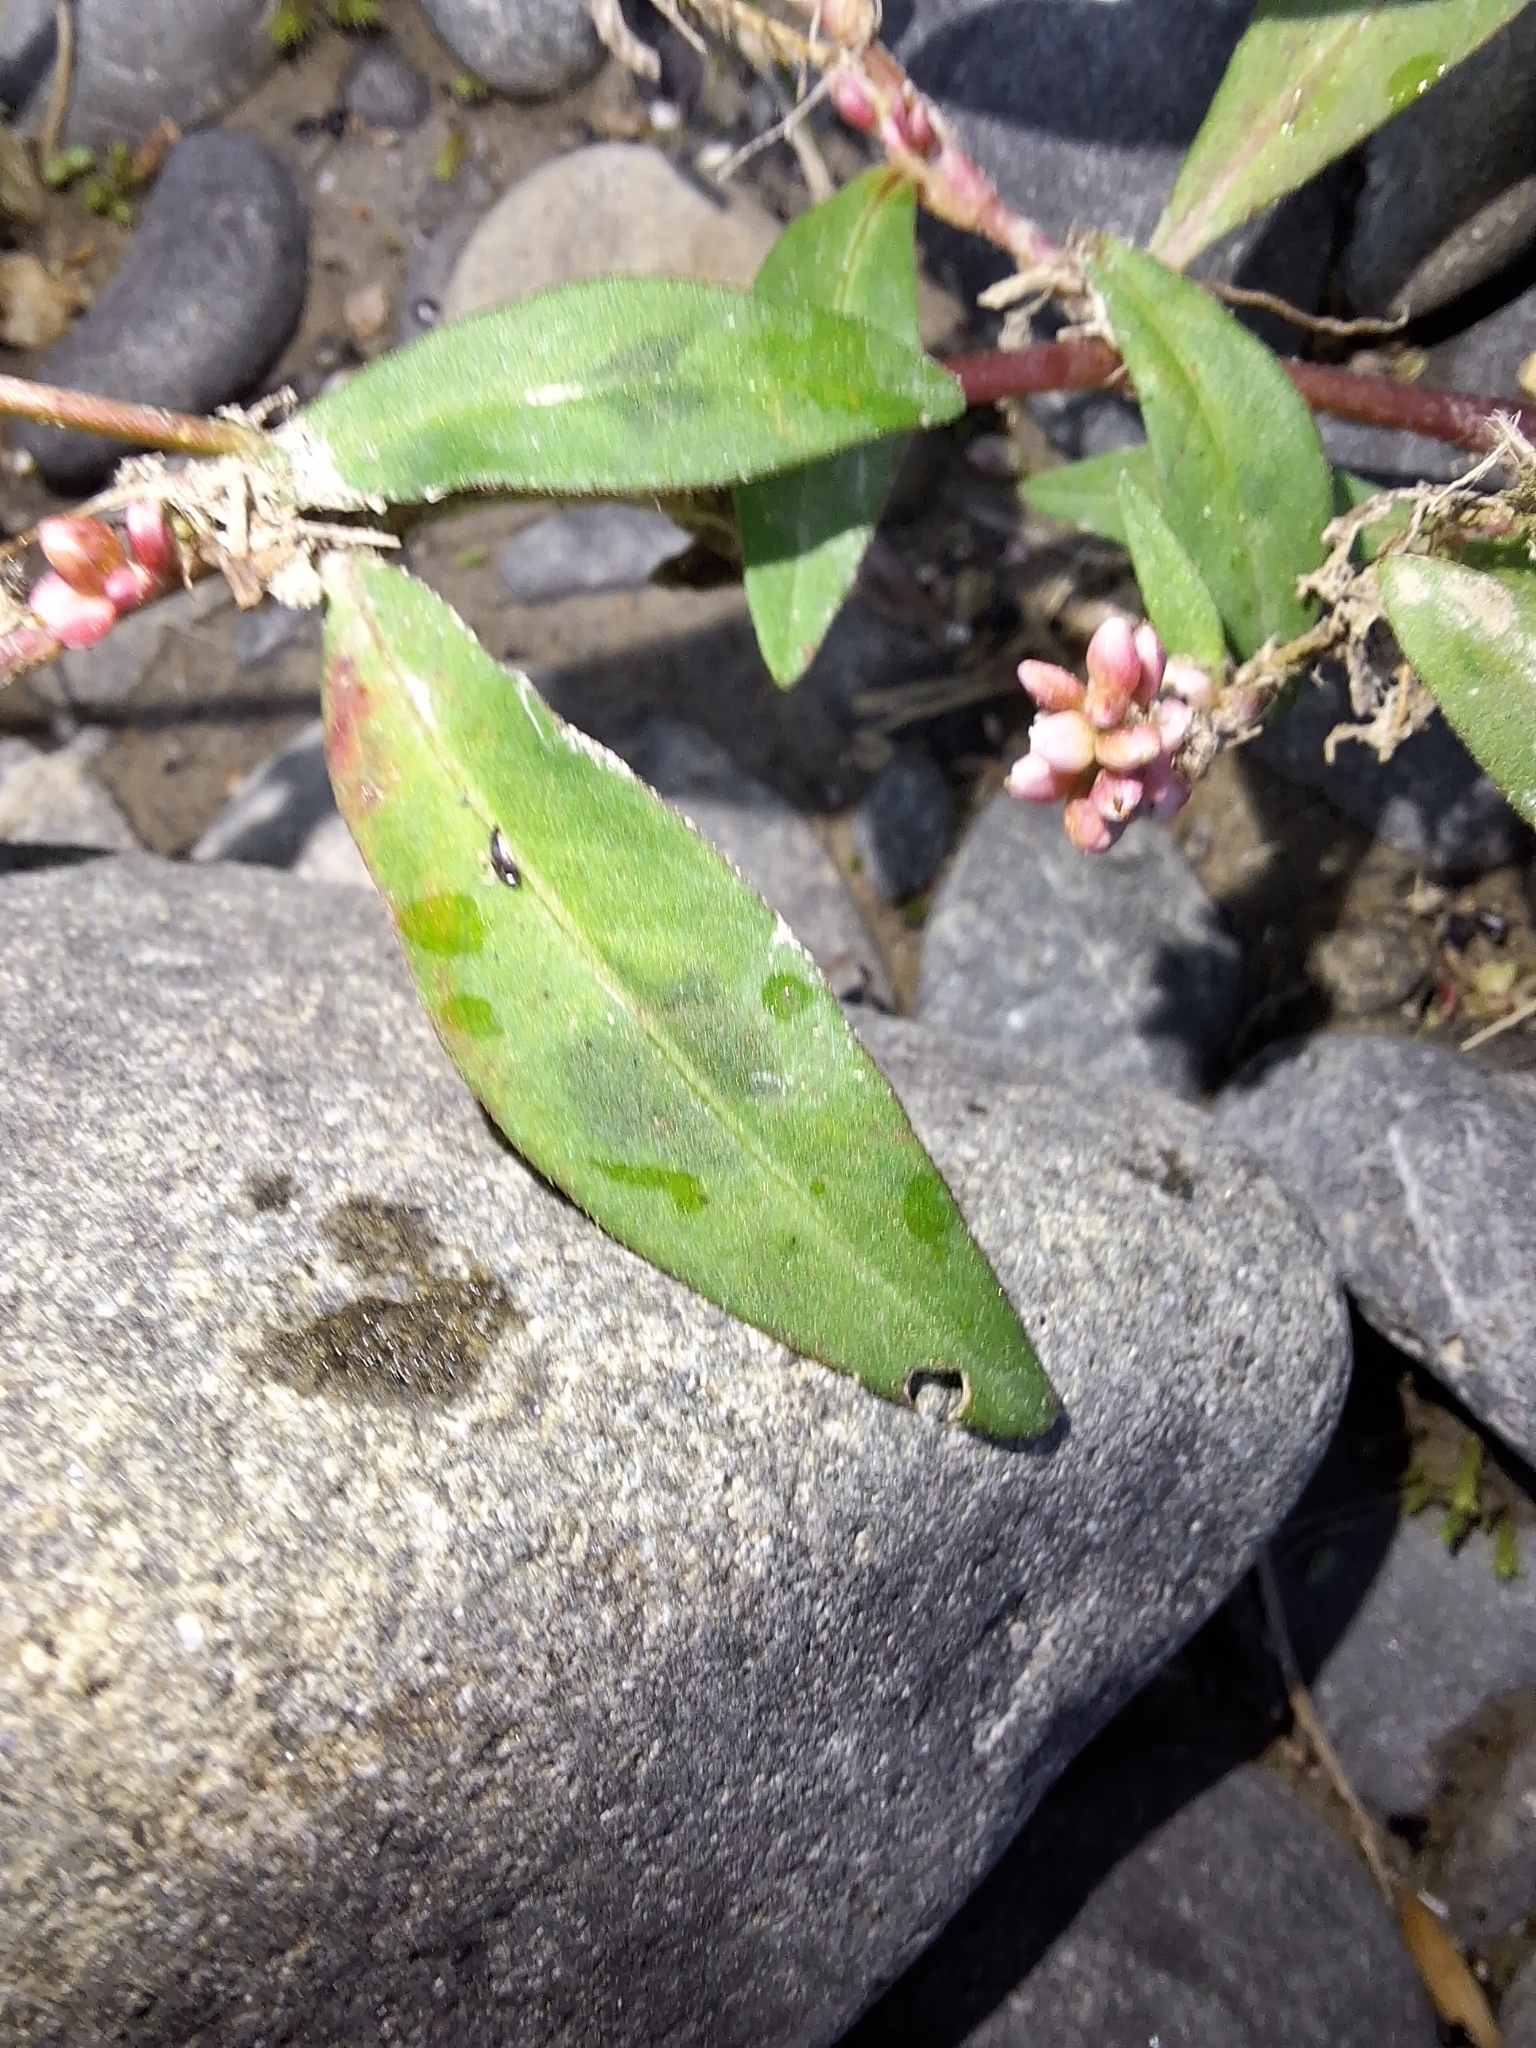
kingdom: Plantae
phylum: Tracheophyta
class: Magnoliopsida
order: Caryophyllales
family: Polygonaceae
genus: Persicaria
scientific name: Persicaria maculosa
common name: Redshank
